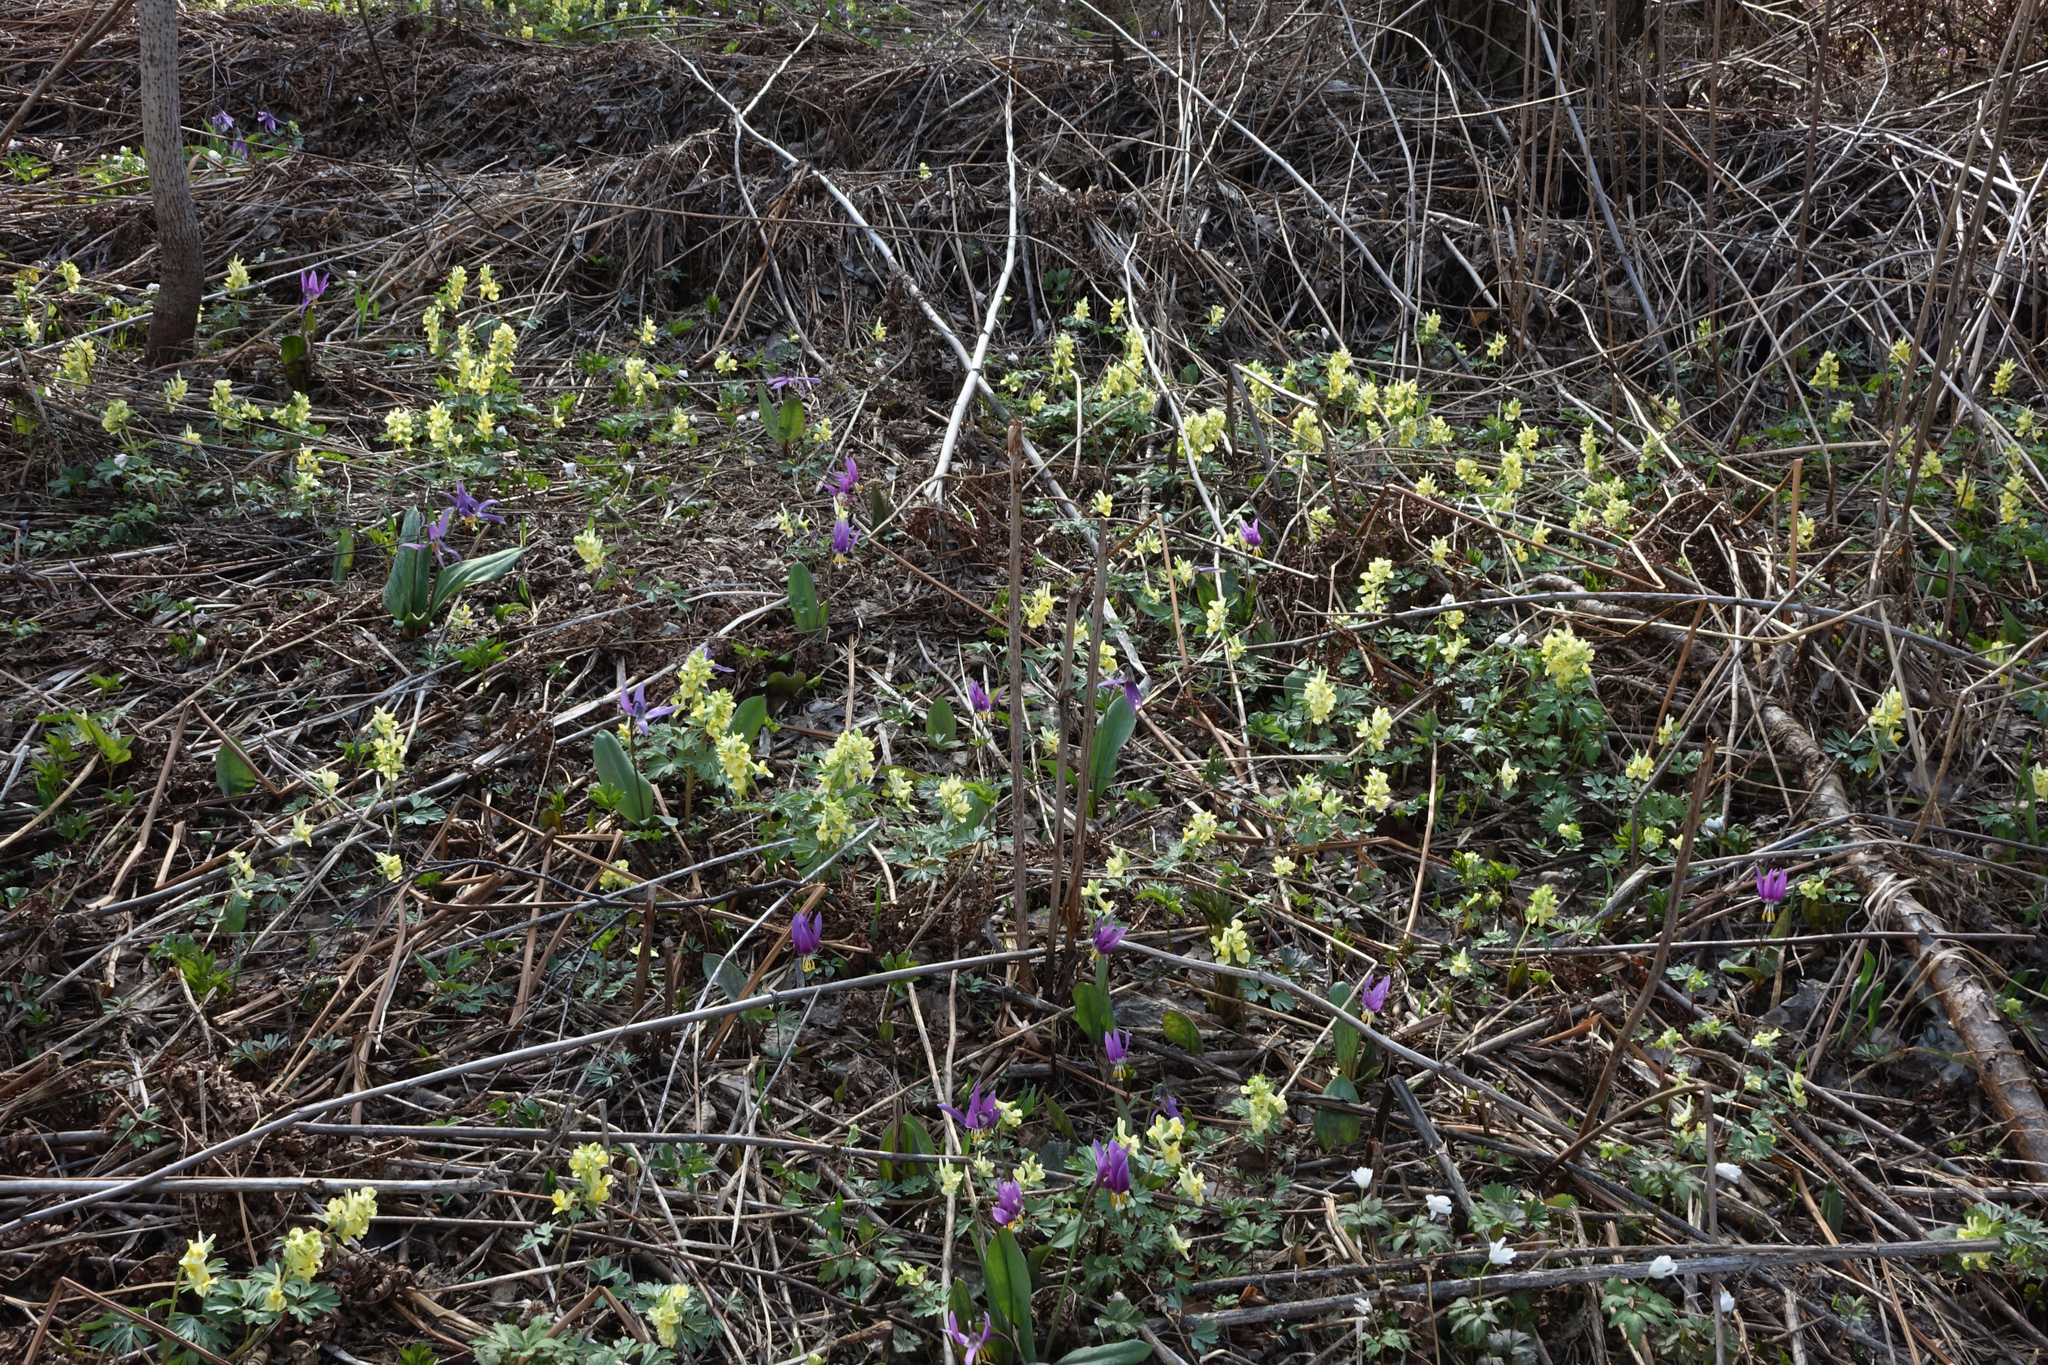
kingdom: Plantae
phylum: Tracheophyta
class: Magnoliopsida
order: Ranunculales
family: Papaveraceae
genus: Corydalis
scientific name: Corydalis bracteata
